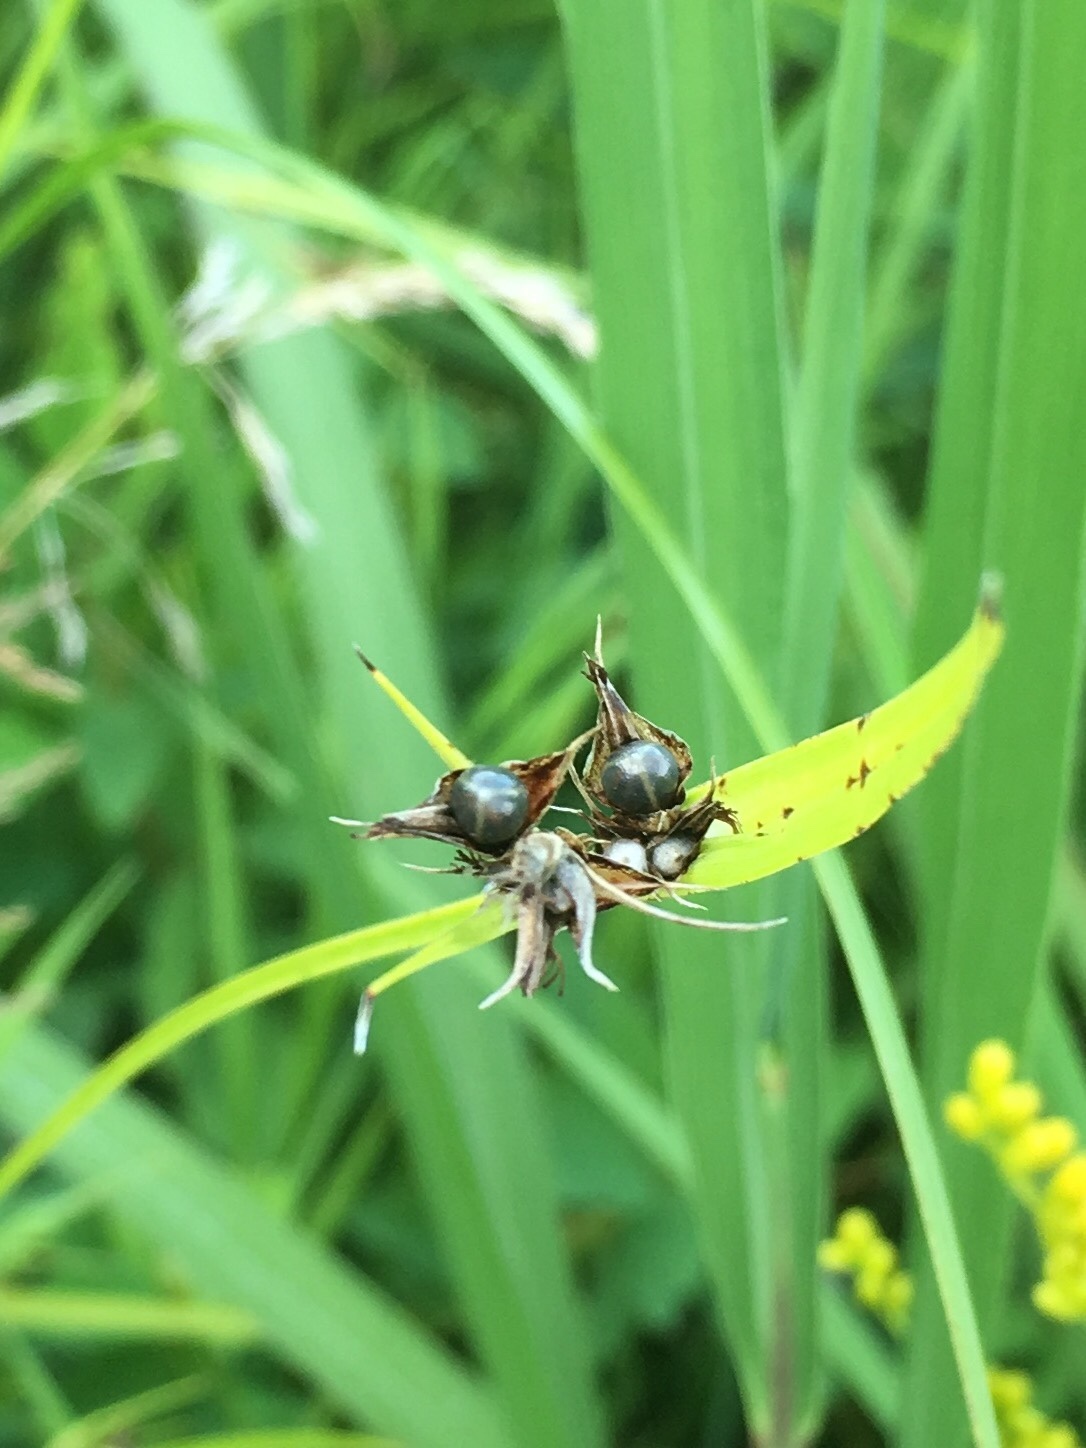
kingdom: Plantae
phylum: Tracheophyta
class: Liliopsida
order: Poales
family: Cyperaceae
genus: Scleria
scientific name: Scleria triglomerata
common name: Whip nutrush
